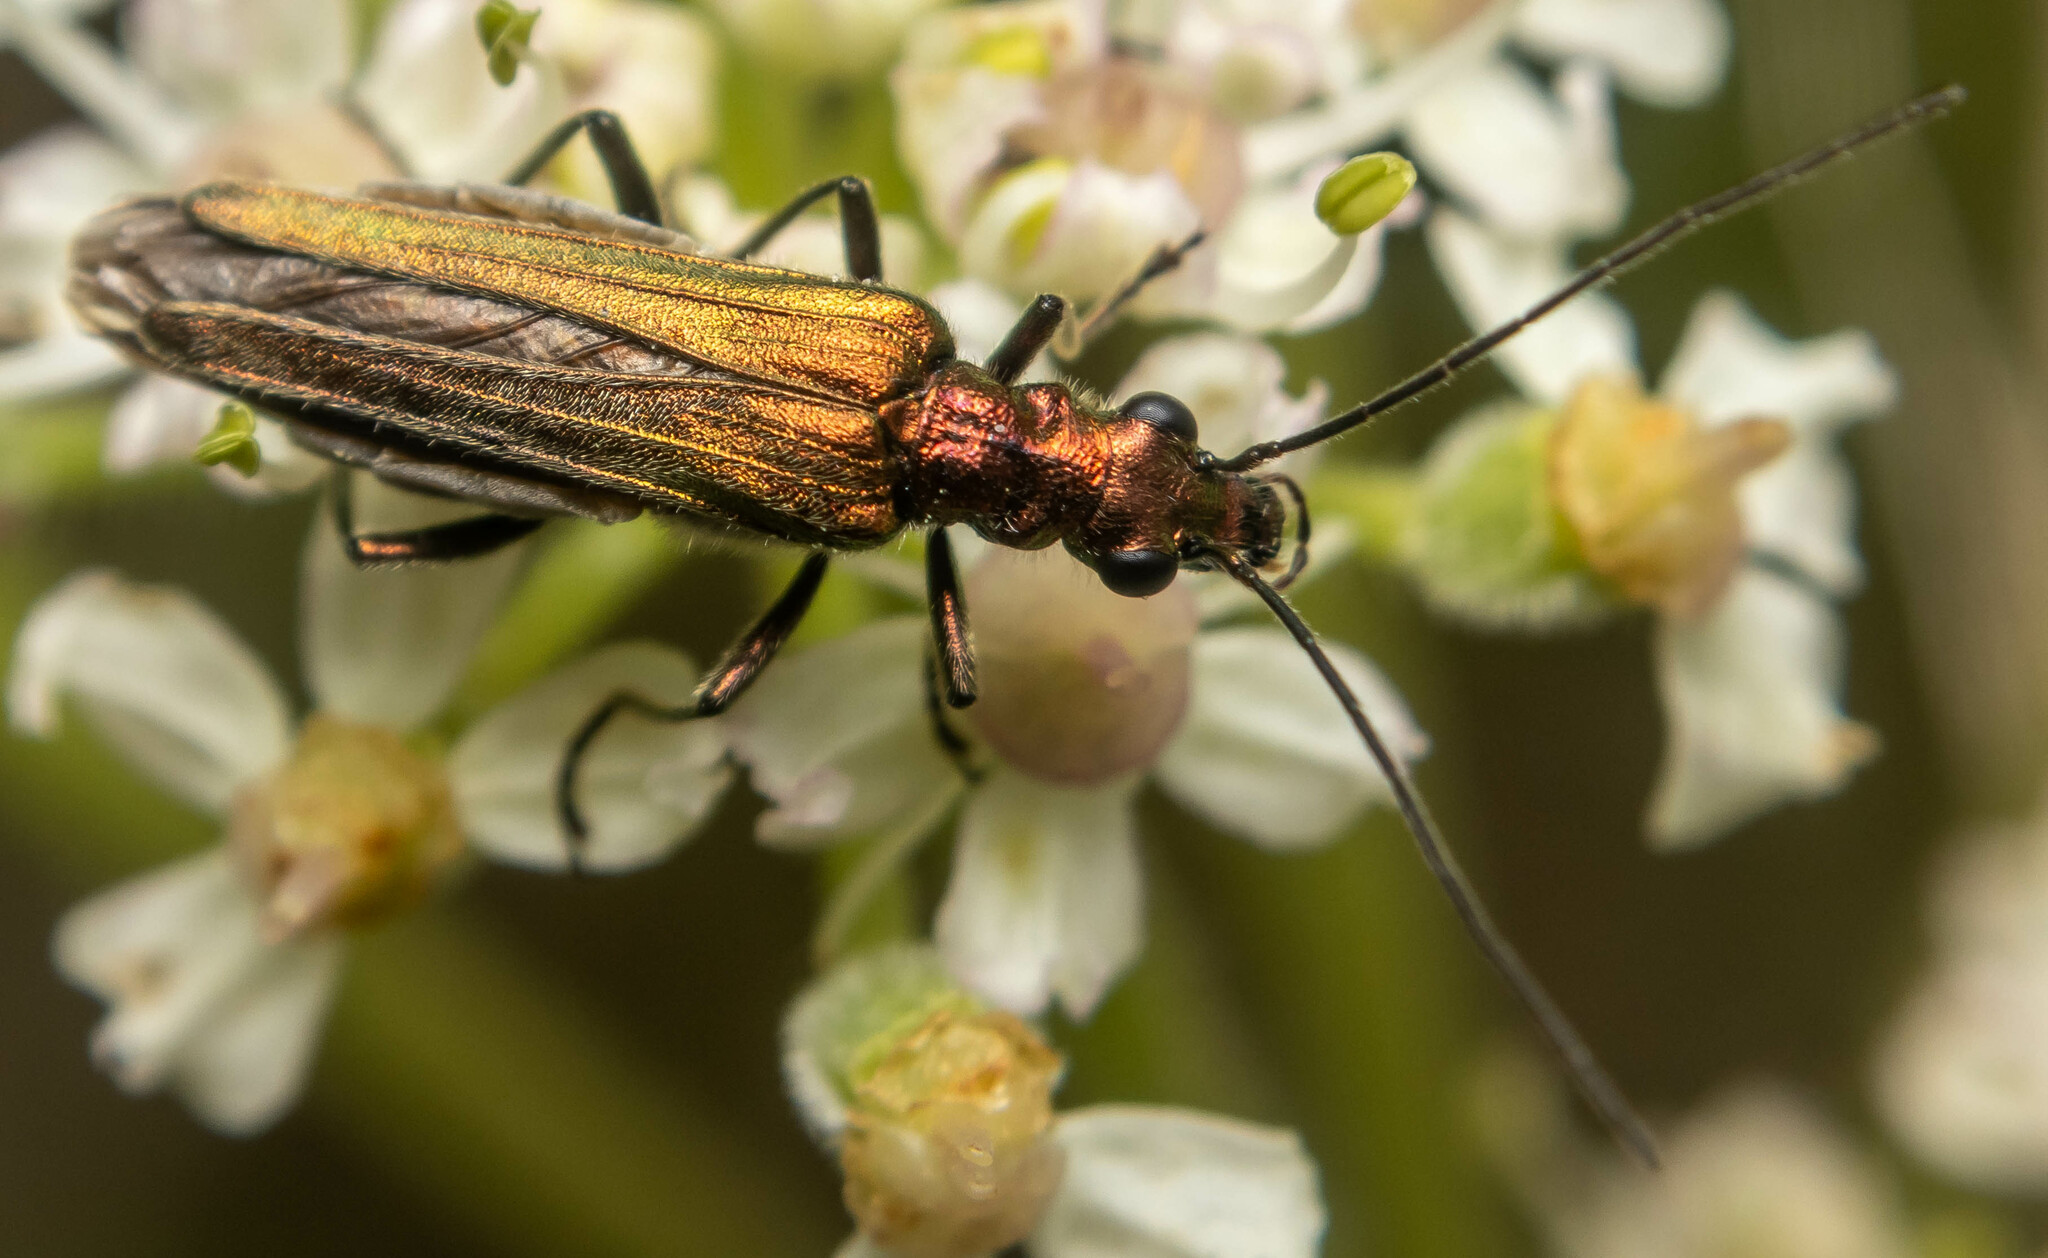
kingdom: Animalia
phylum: Arthropoda
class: Insecta
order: Coleoptera
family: Oedemeridae
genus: Oedemera
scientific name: Oedemera nobilis
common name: Swollen-thighed beetle
